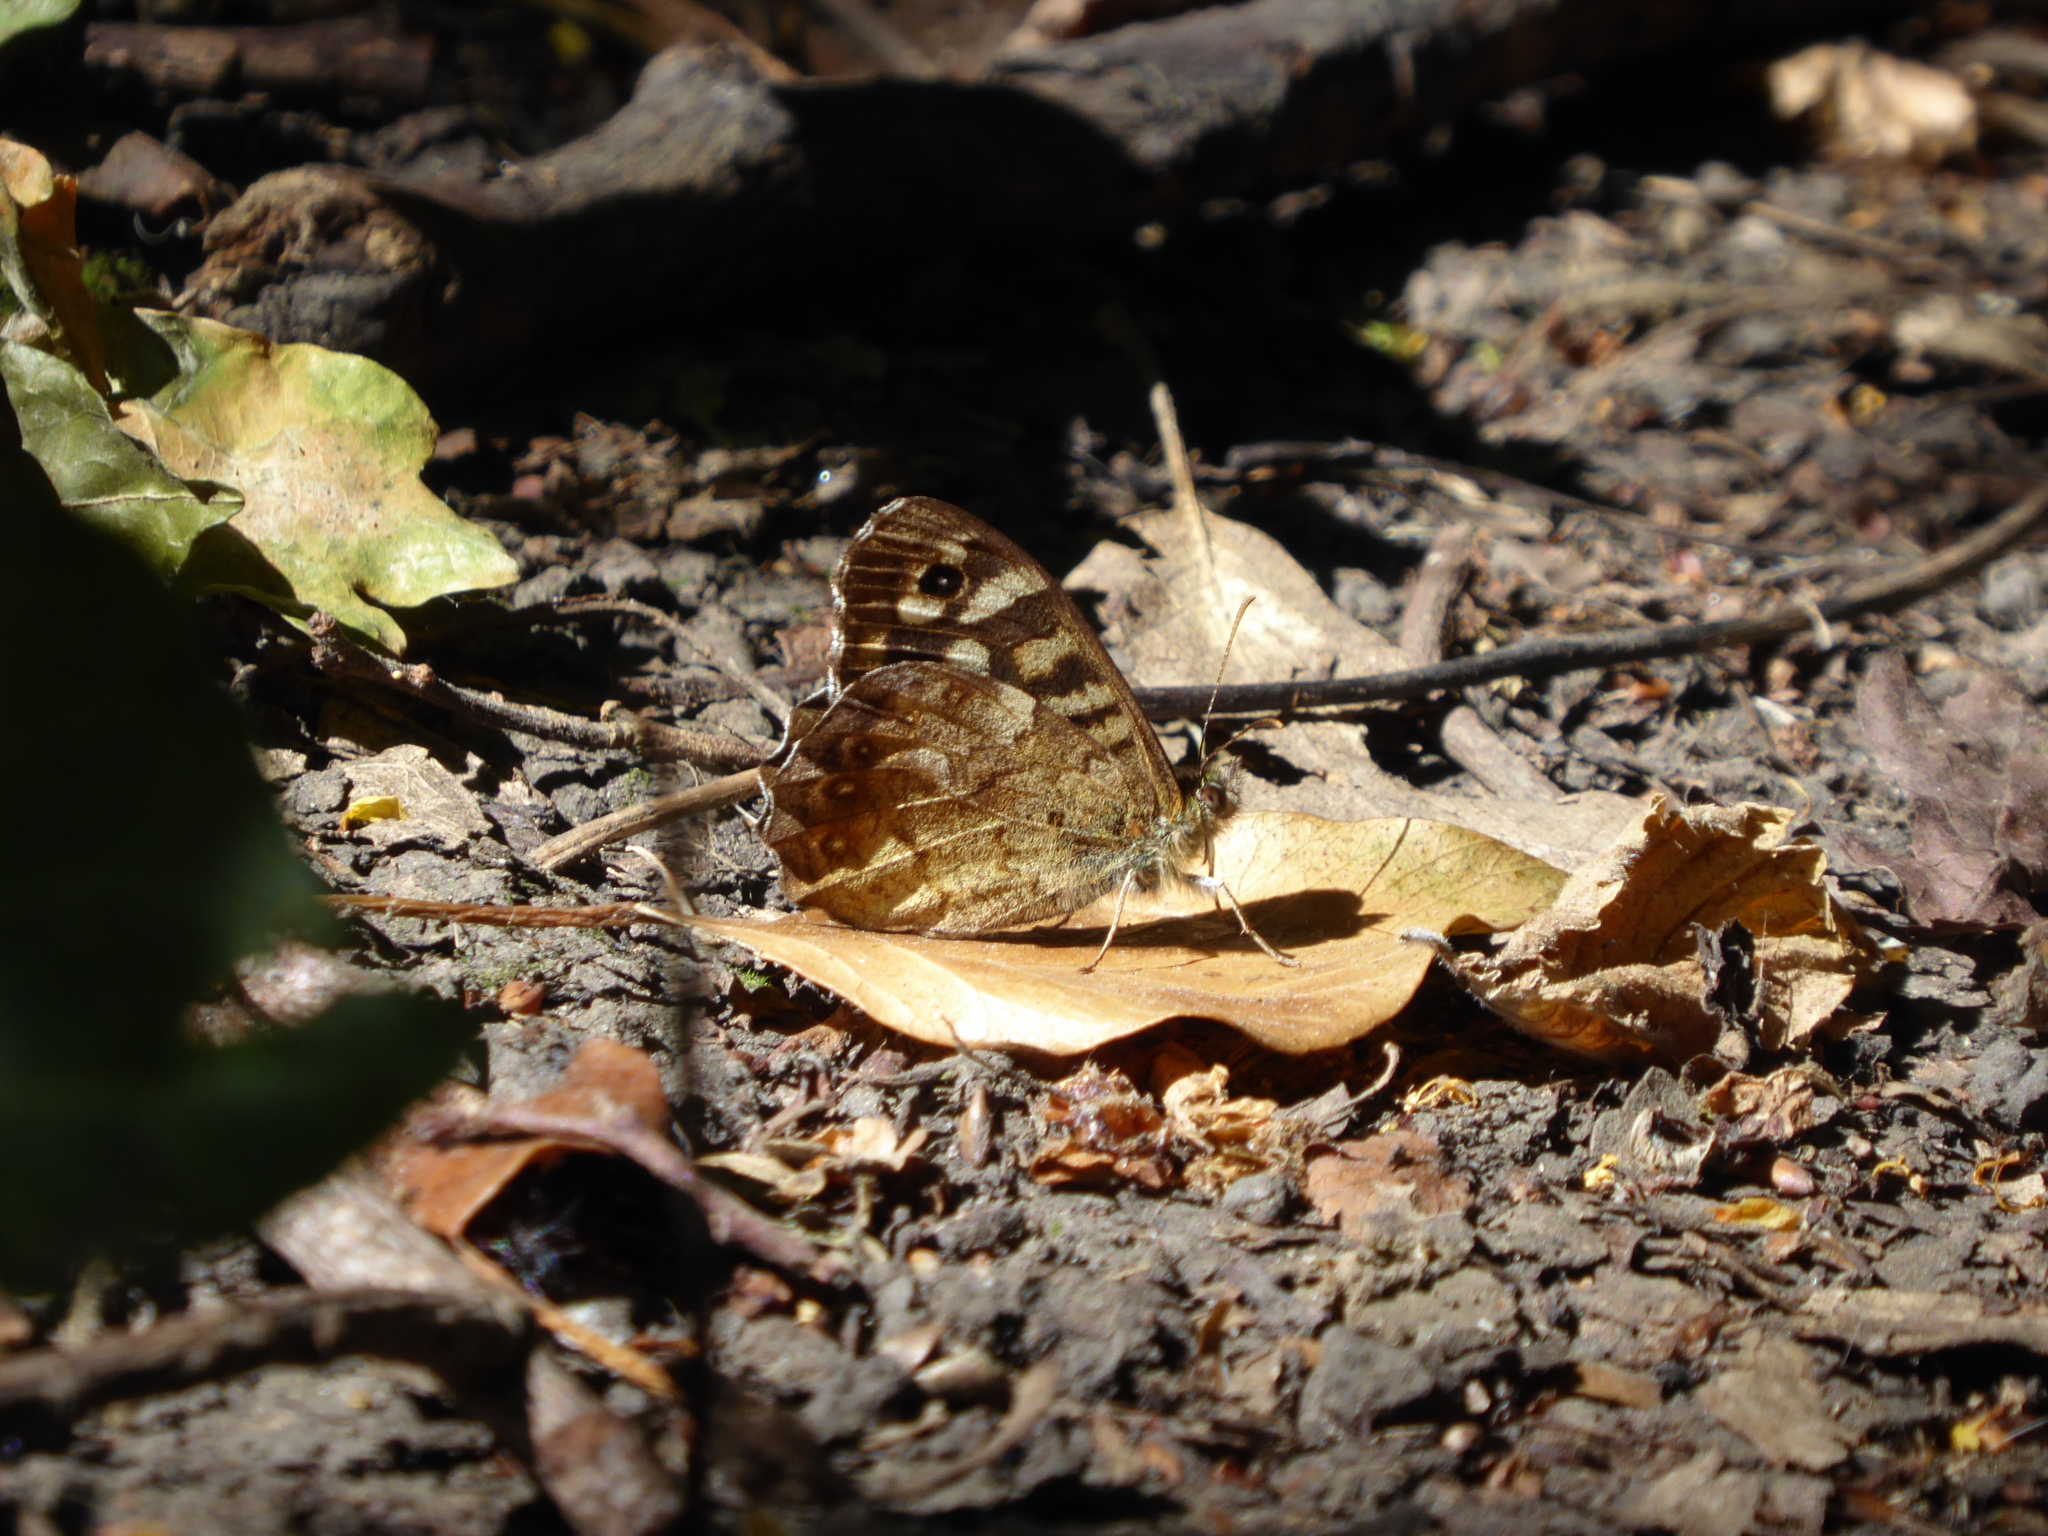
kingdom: Animalia
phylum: Arthropoda
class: Insecta
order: Lepidoptera
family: Nymphalidae
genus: Pararge
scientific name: Pararge aegeria
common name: Speckled wood
